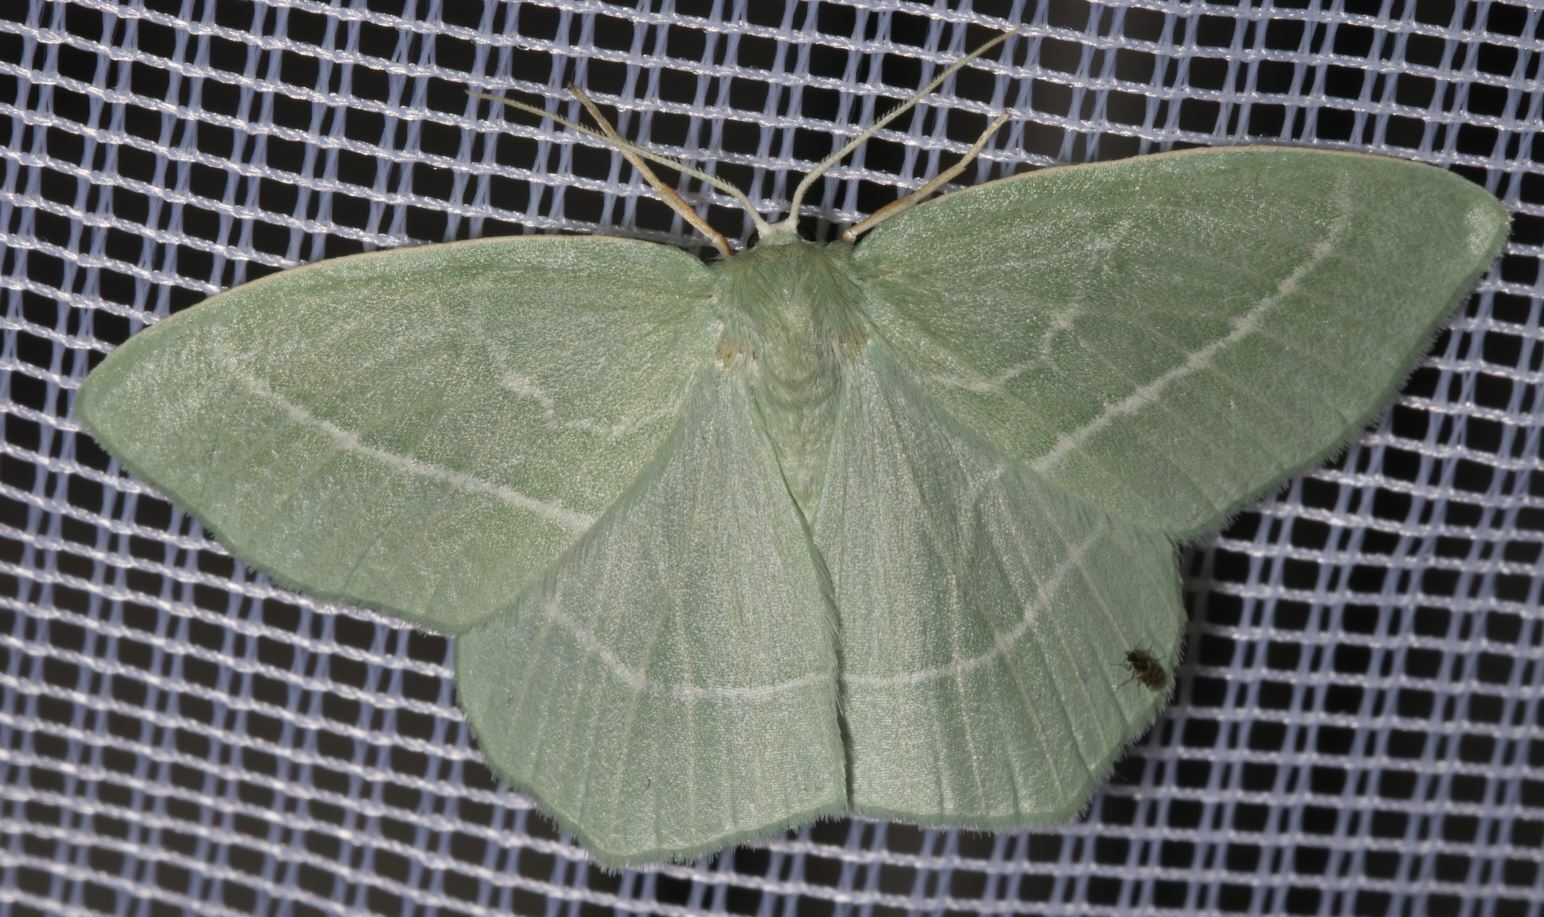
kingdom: Animalia
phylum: Arthropoda
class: Insecta
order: Lepidoptera
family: Geometridae
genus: Hemistola
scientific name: Hemistola chrysoprasaria
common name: Small emerald
